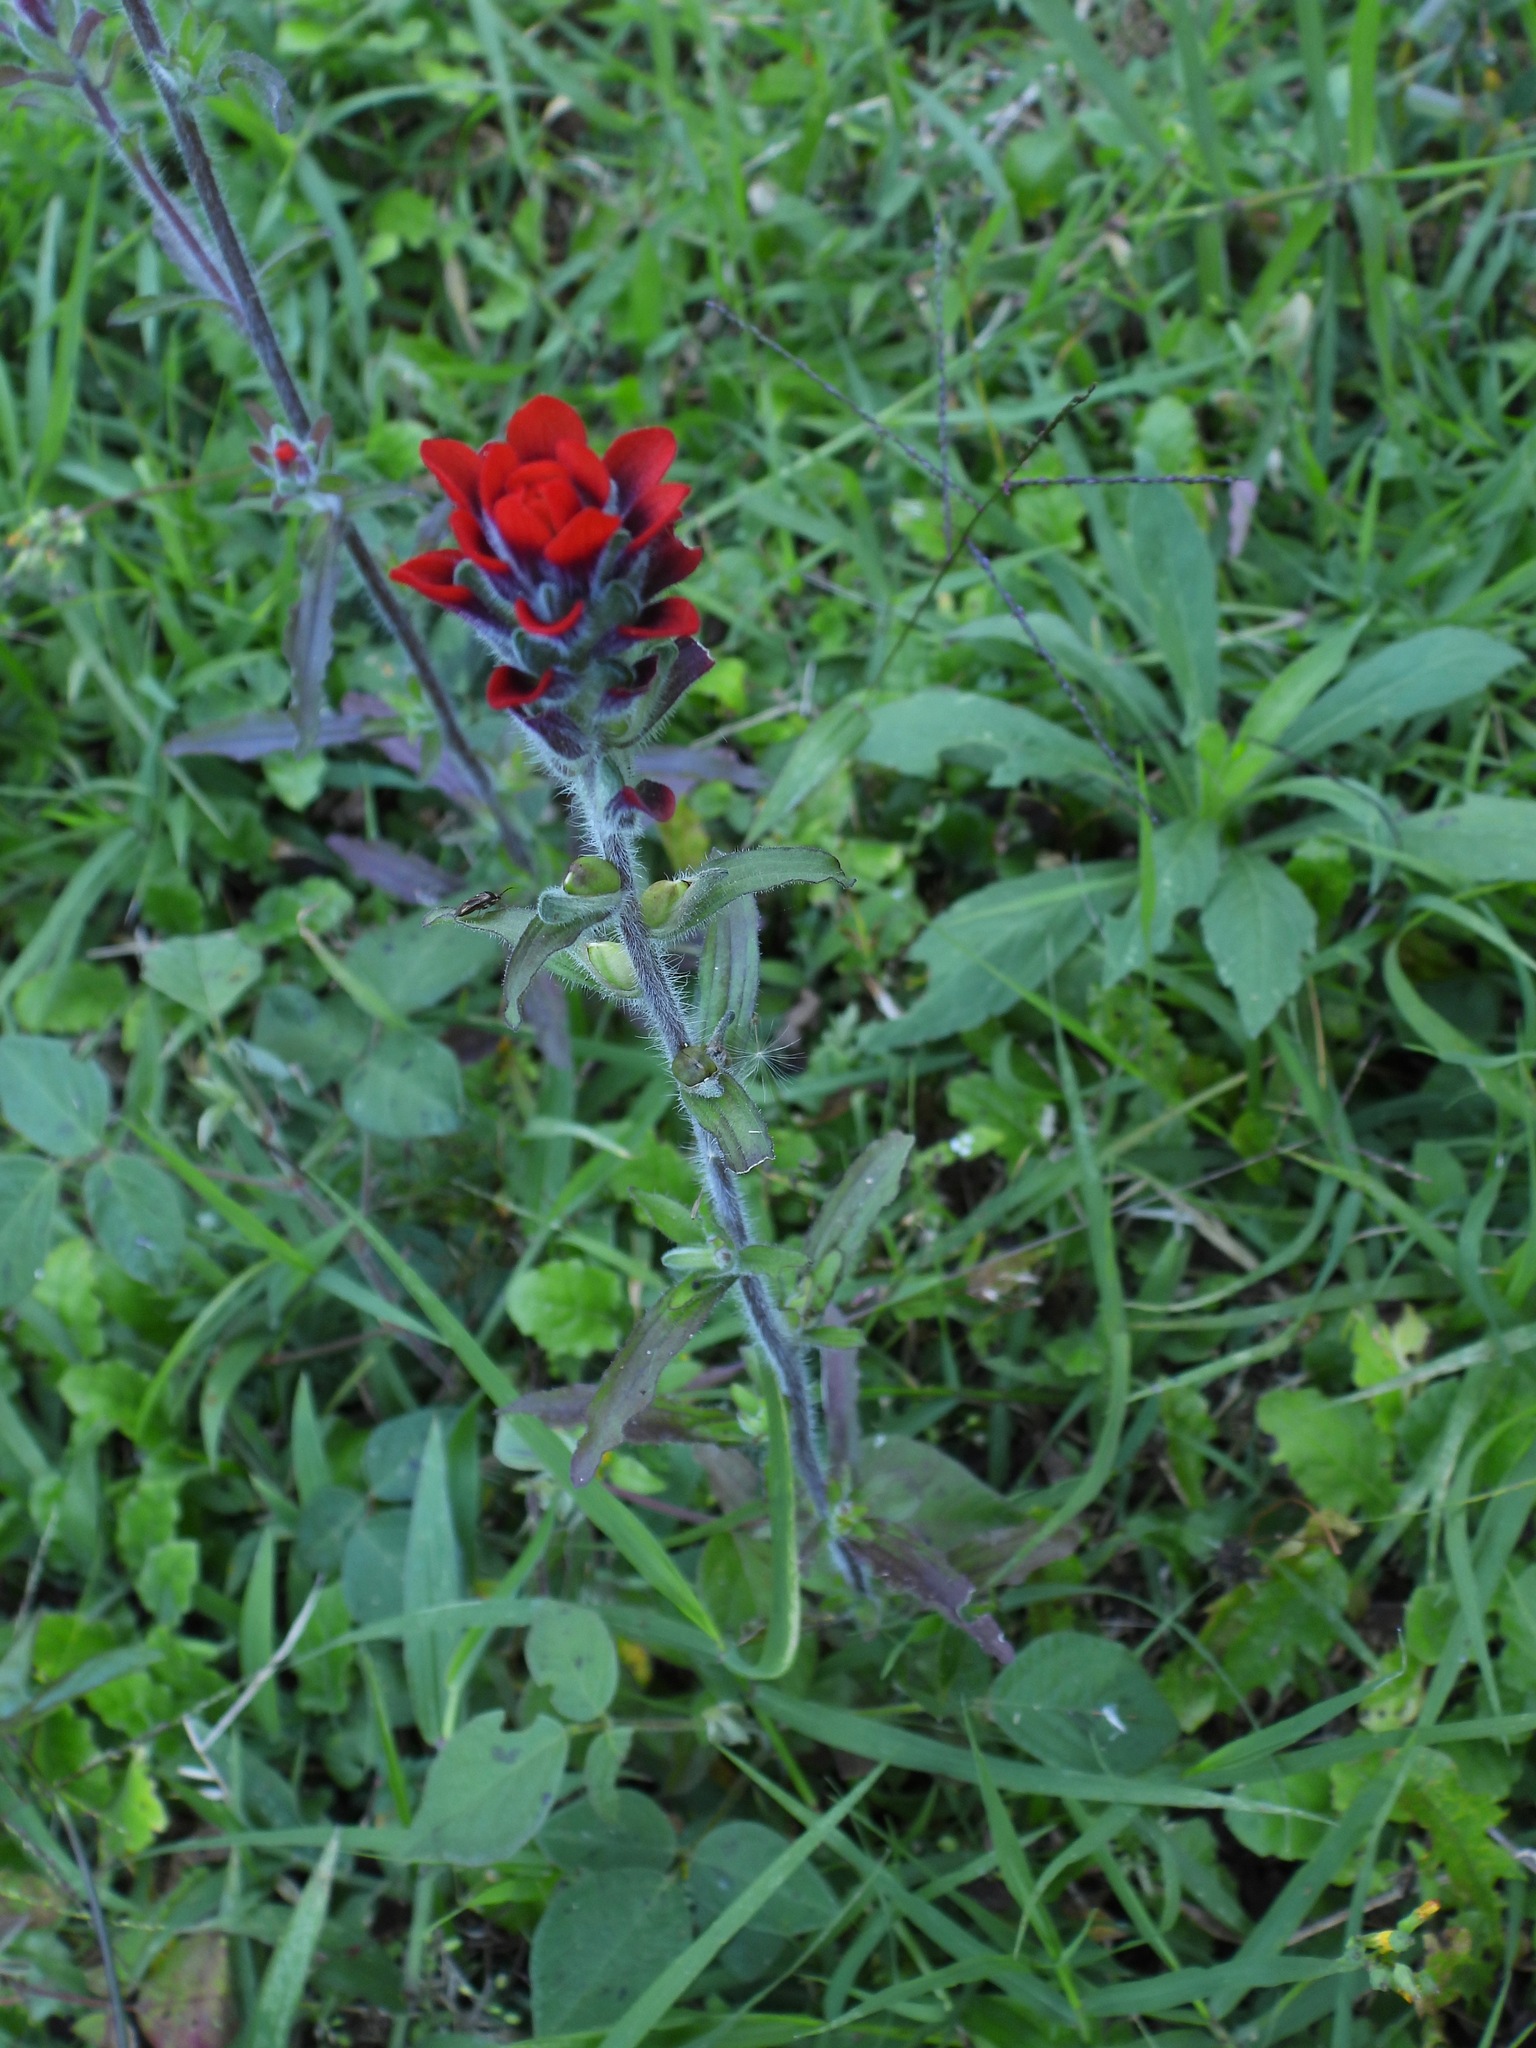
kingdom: Plantae
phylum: Tracheophyta
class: Magnoliopsida
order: Lamiales
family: Orobanchaceae
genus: Castilleja
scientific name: Castilleja arvensis
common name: Indian paintbrush
